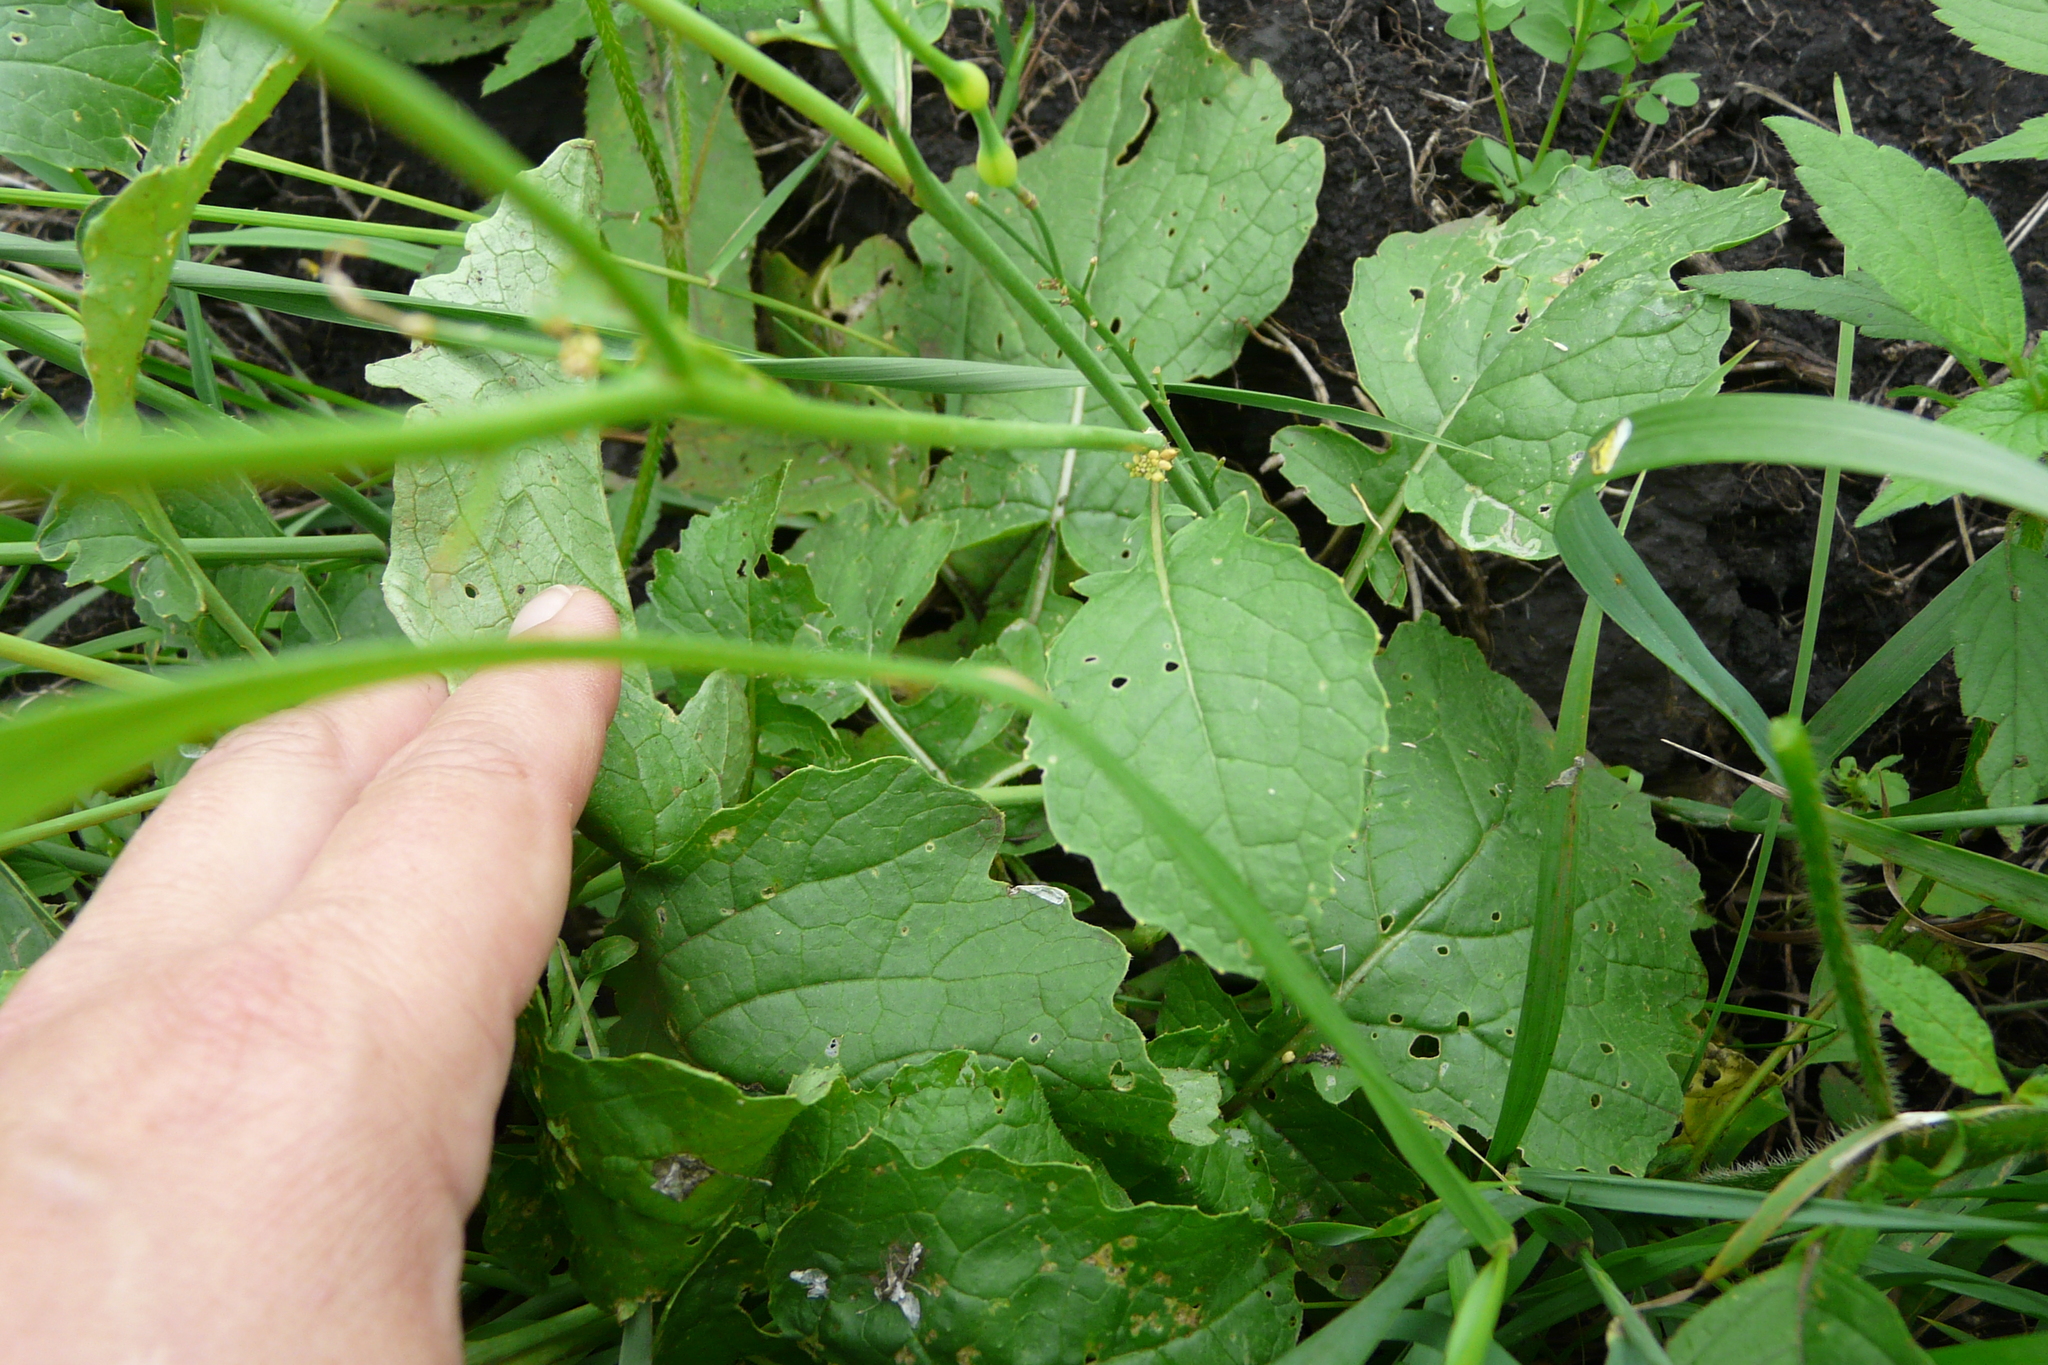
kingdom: Plantae
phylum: Tracheophyta
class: Magnoliopsida
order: Brassicales
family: Brassicaceae
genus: Raphanus
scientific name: Raphanus raphanistrum
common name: Wild radish
